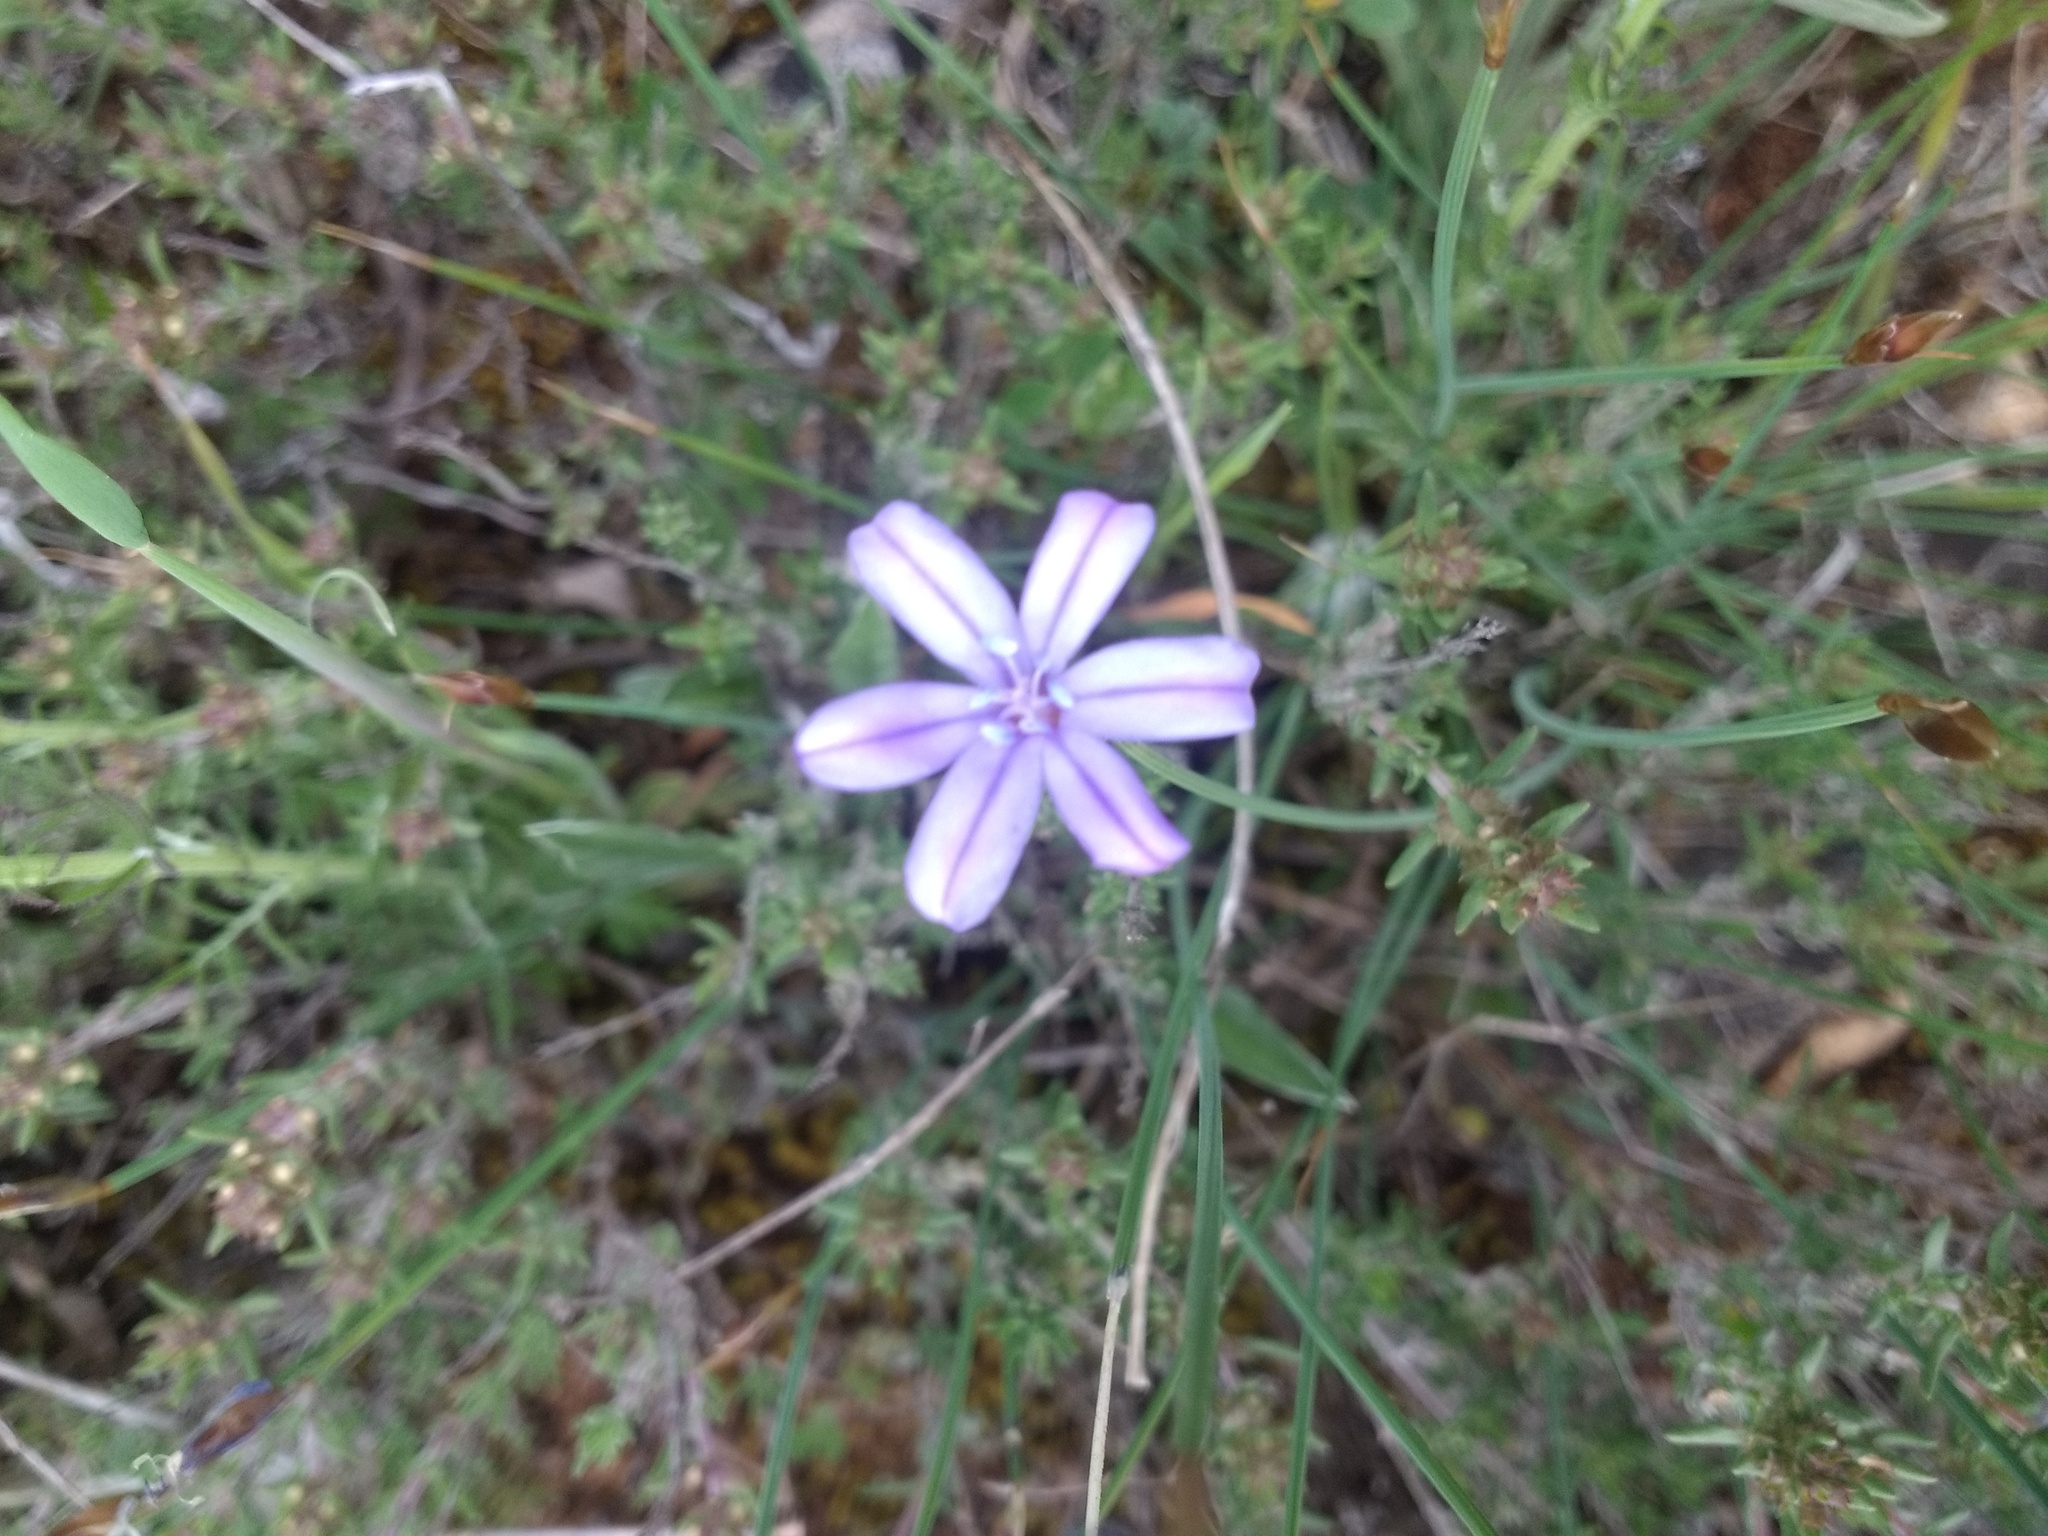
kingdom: Plantae
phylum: Tracheophyta
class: Liliopsida
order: Asparagales
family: Asparagaceae
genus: Aphyllanthes
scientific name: Aphyllanthes monspeliensis
